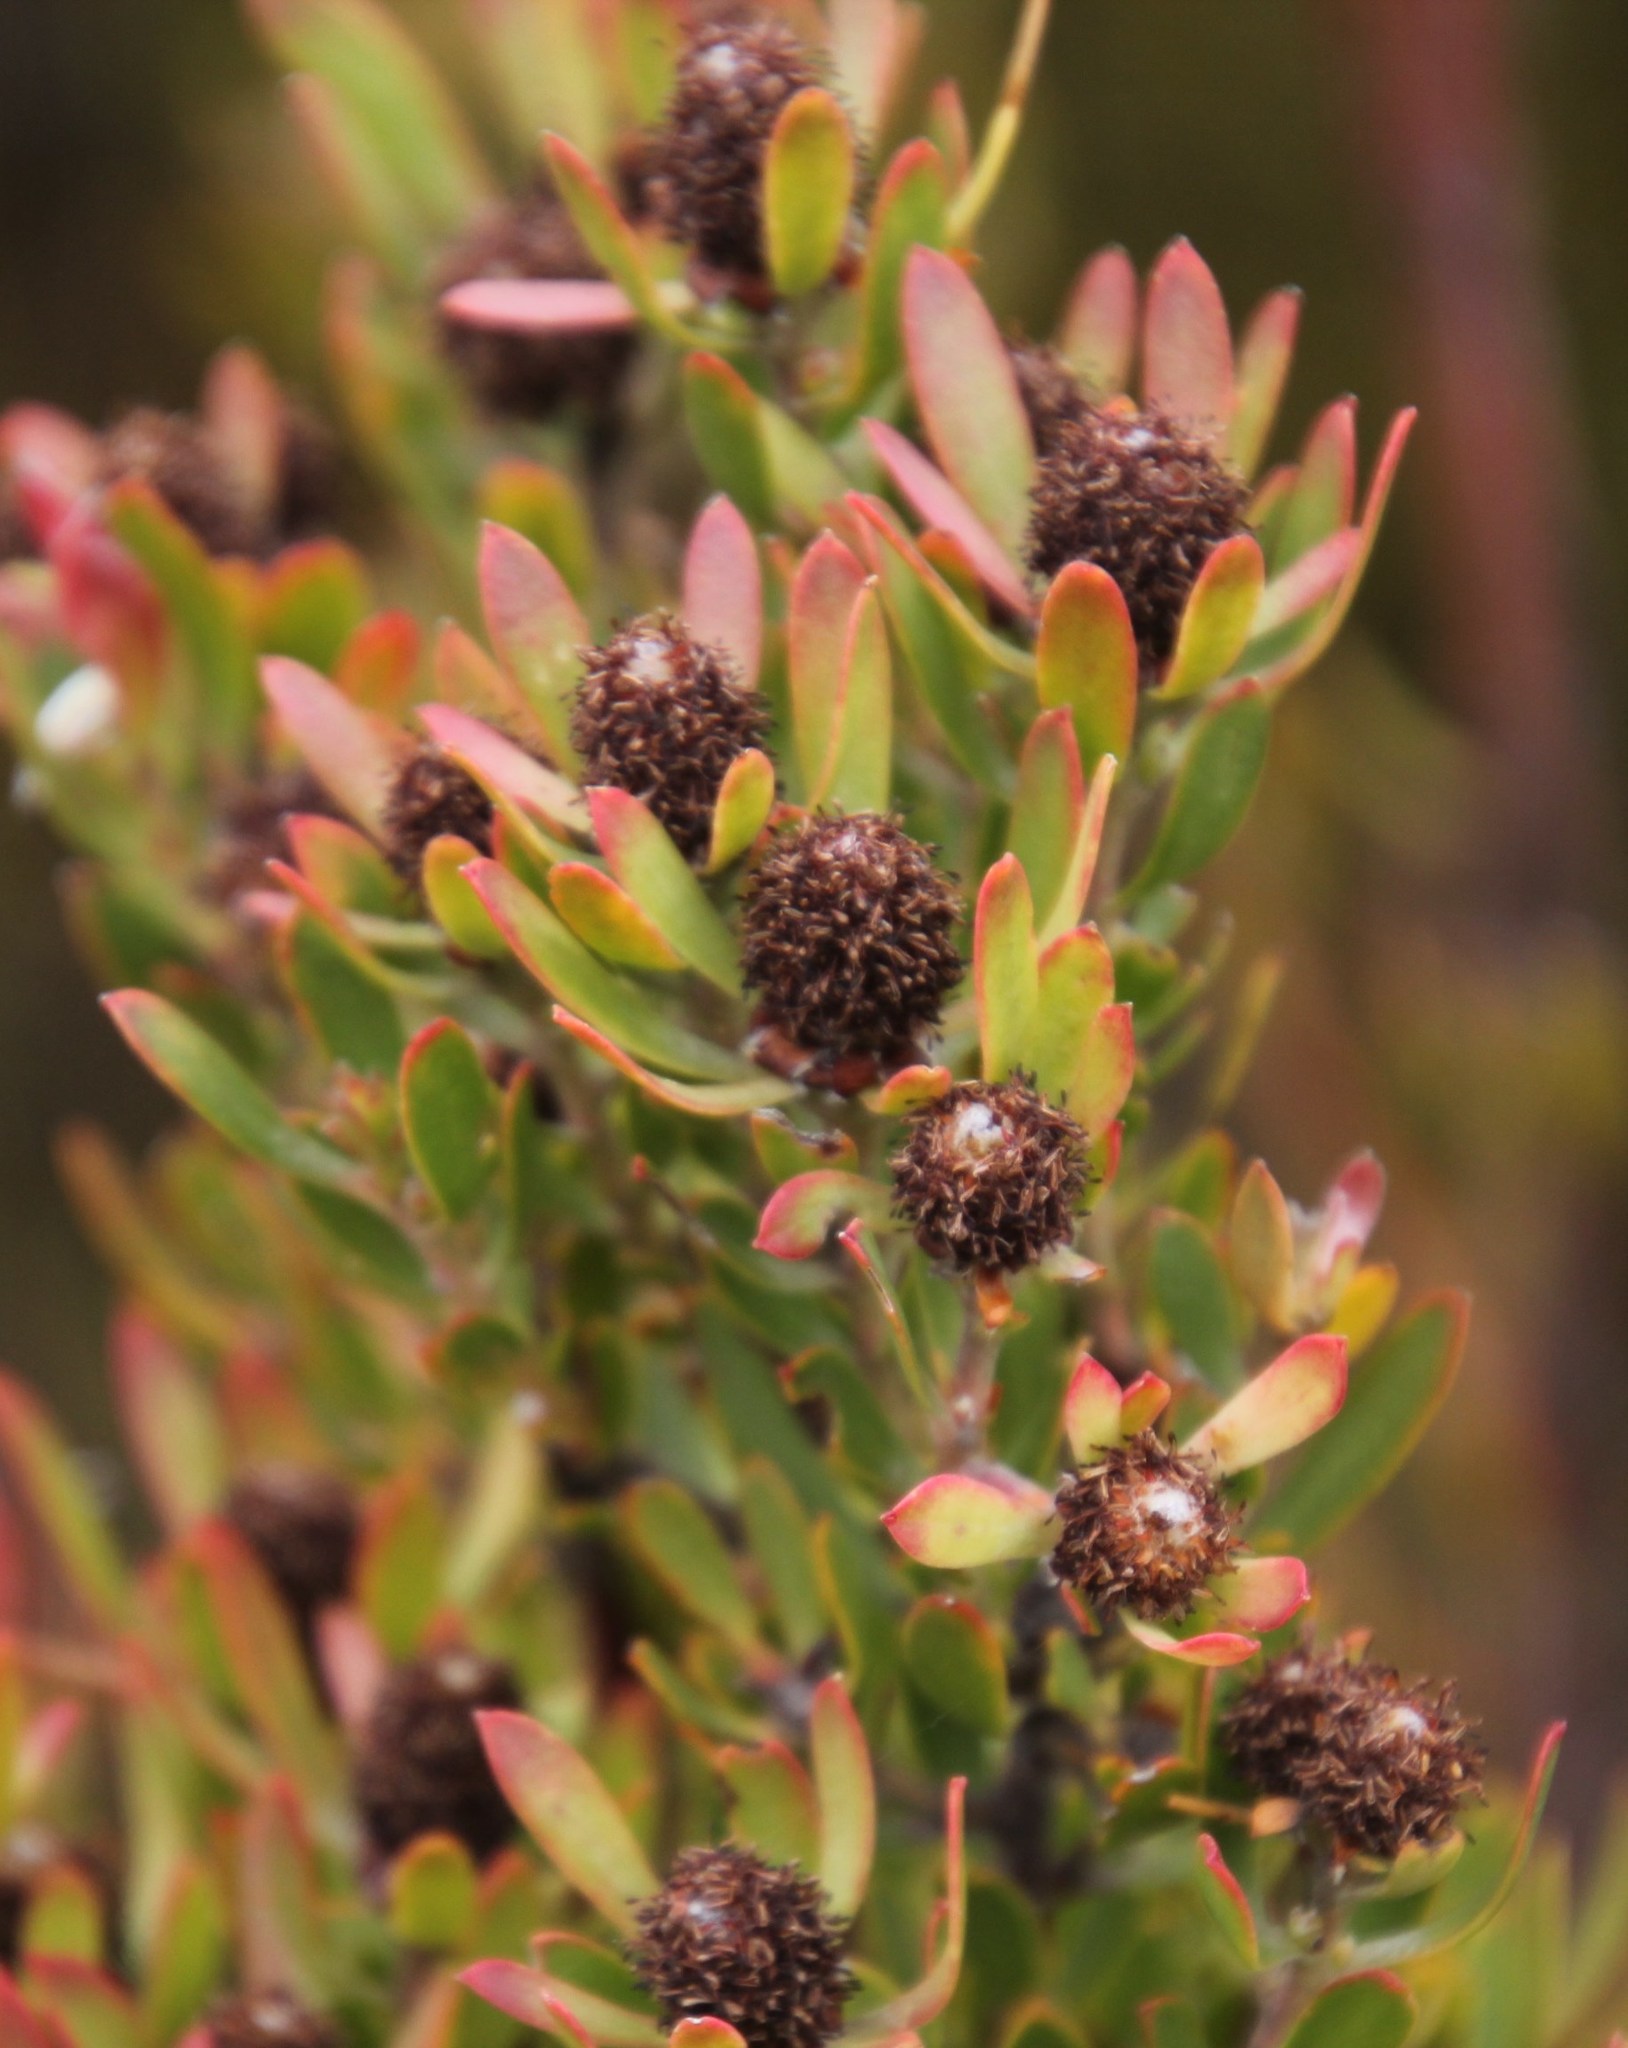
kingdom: Plantae
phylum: Tracheophyta
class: Magnoliopsida
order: Proteales
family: Proteaceae
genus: Leucadendron
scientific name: Leucadendron spissifolium
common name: Spear-leaf conebush
